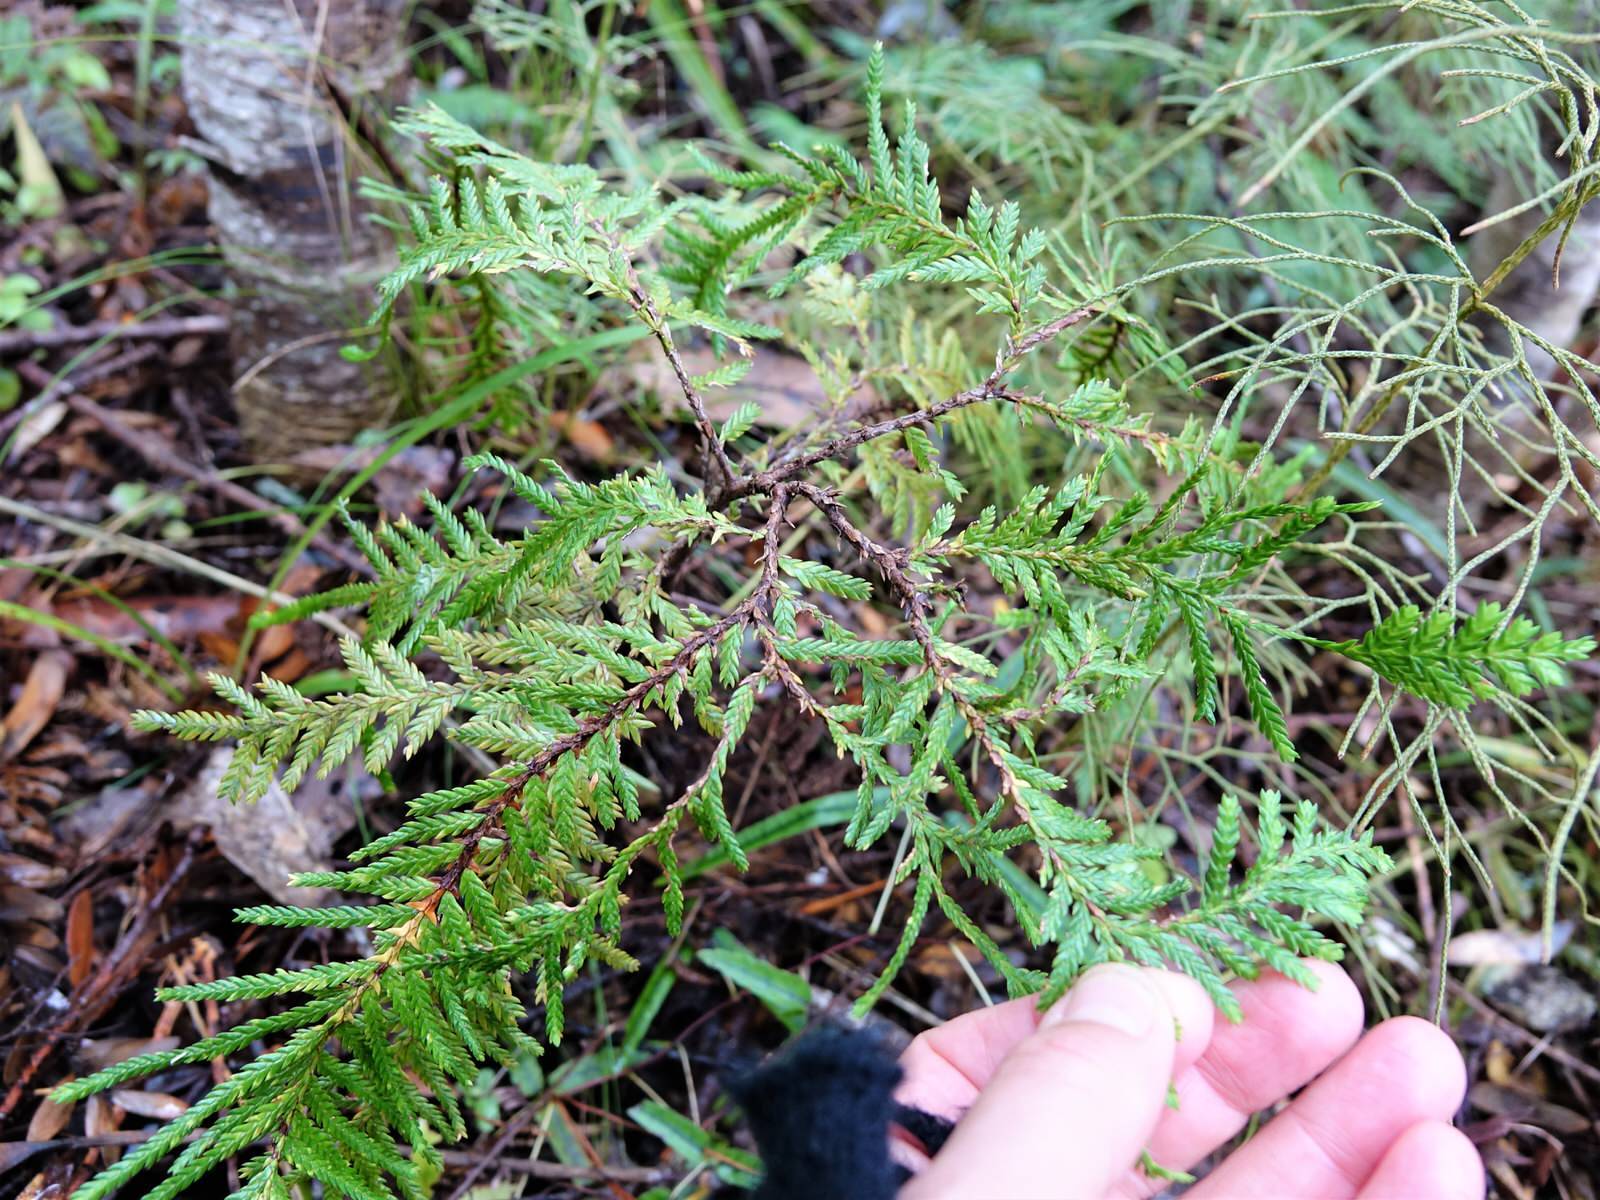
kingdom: Plantae
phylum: Tracheophyta
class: Pinopsida
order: Pinales
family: Cupressaceae
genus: Libocedrus
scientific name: Libocedrus plumosa
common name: New zealand cedar
